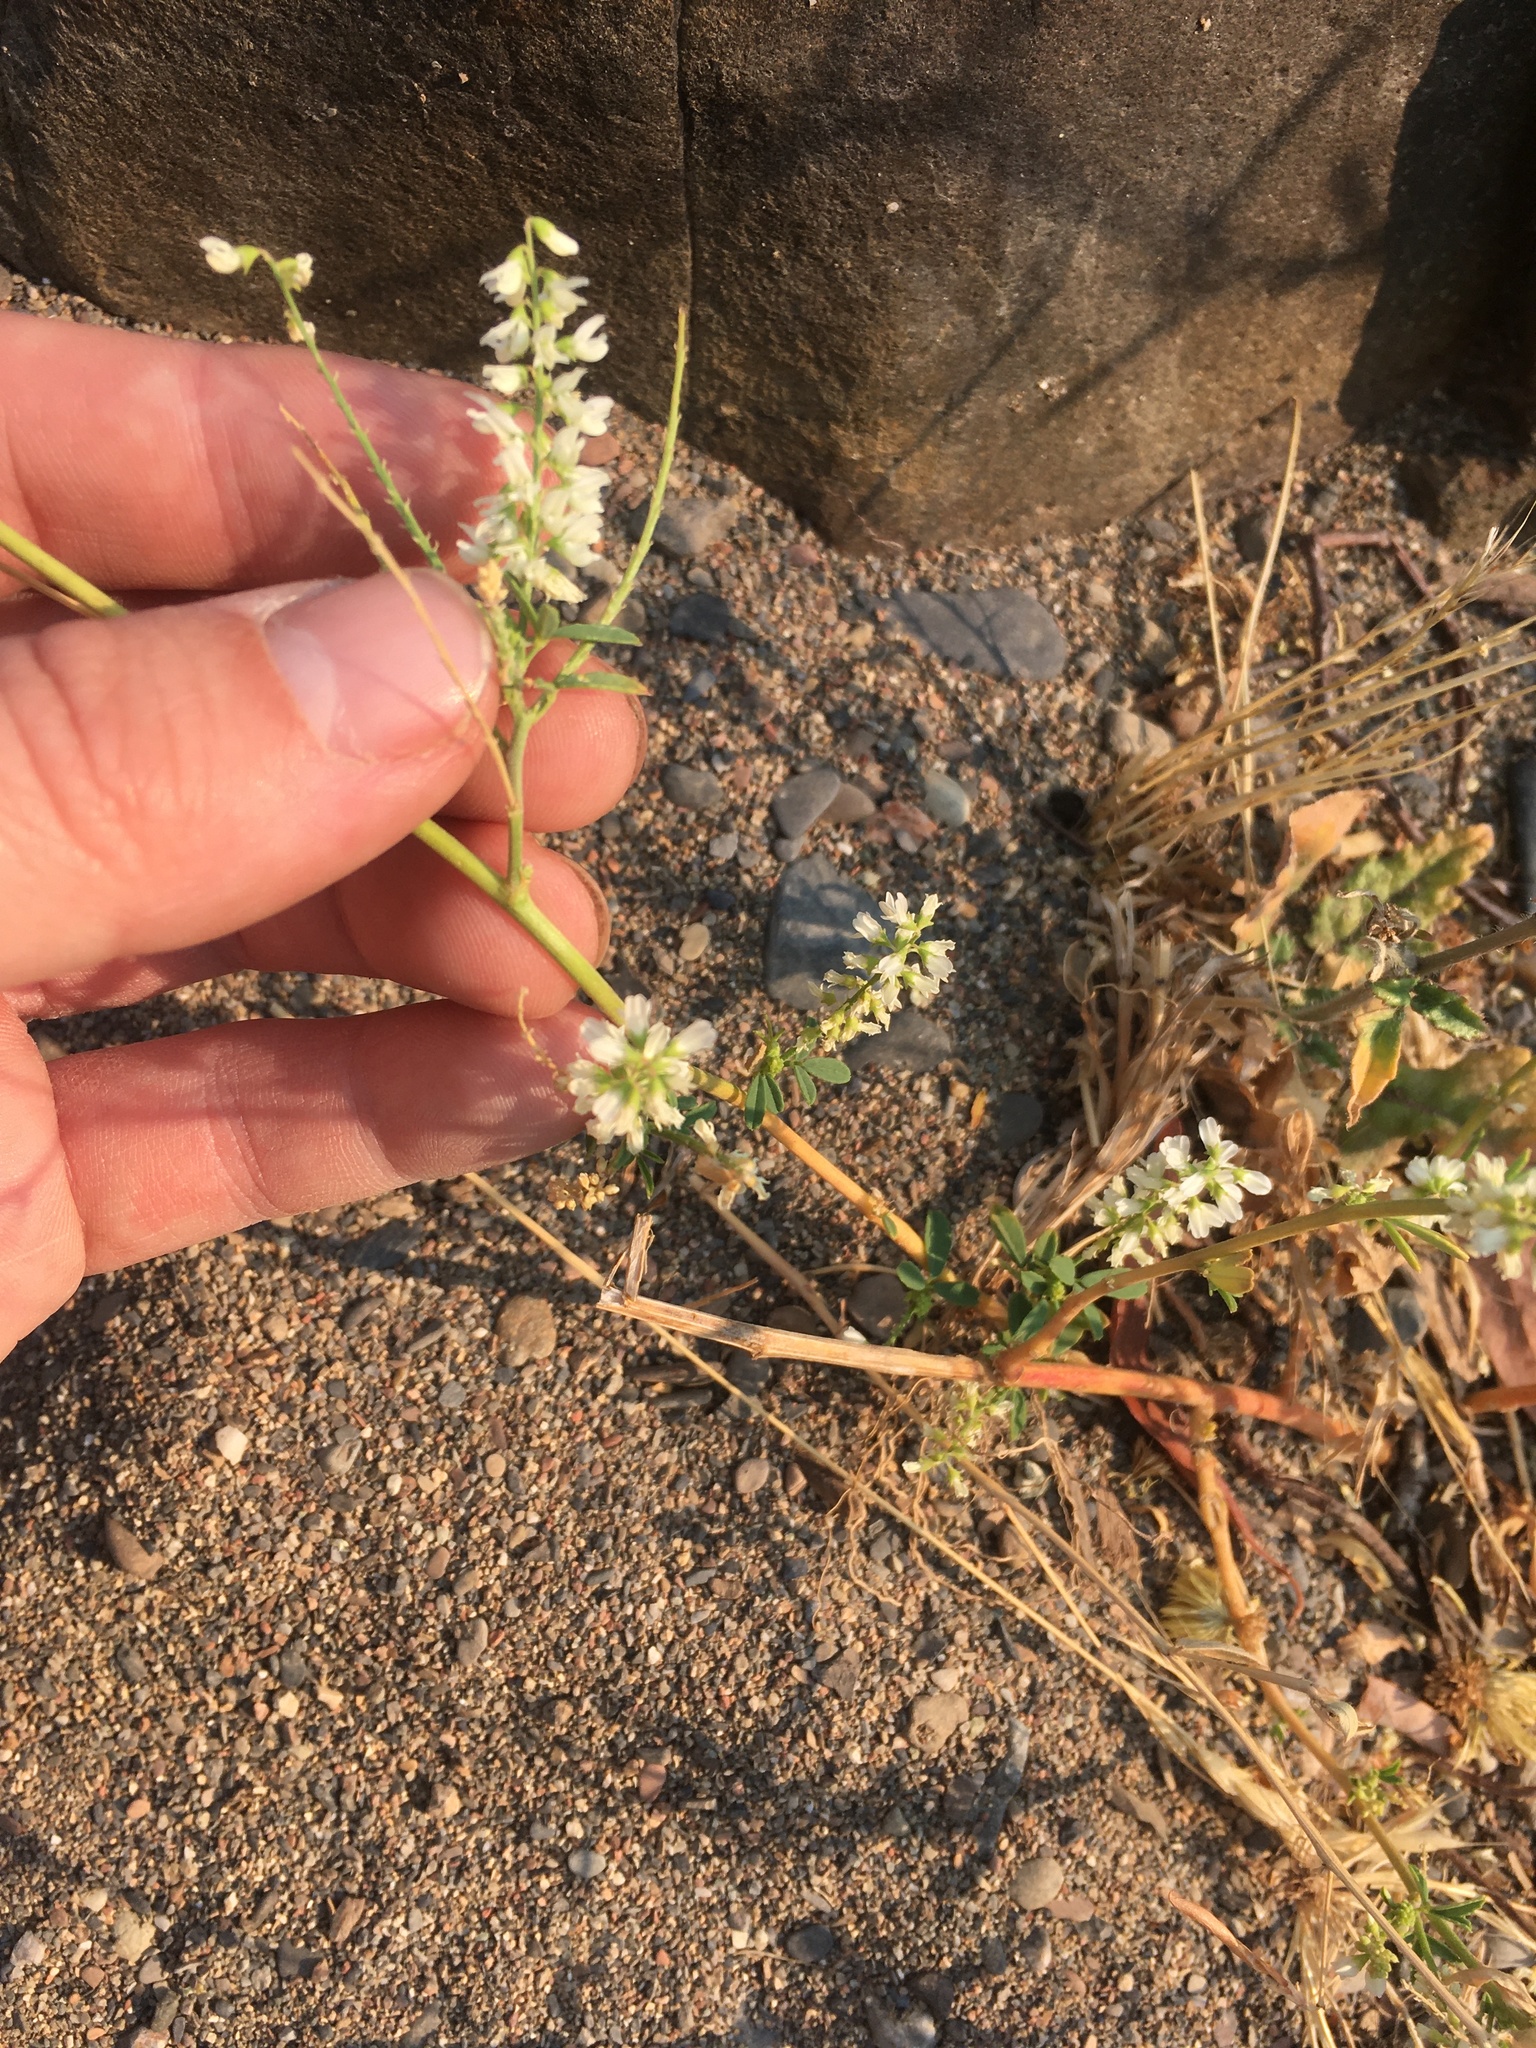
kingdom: Plantae
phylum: Tracheophyta
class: Magnoliopsida
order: Fabales
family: Fabaceae
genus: Melilotus
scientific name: Melilotus albus
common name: White melilot
